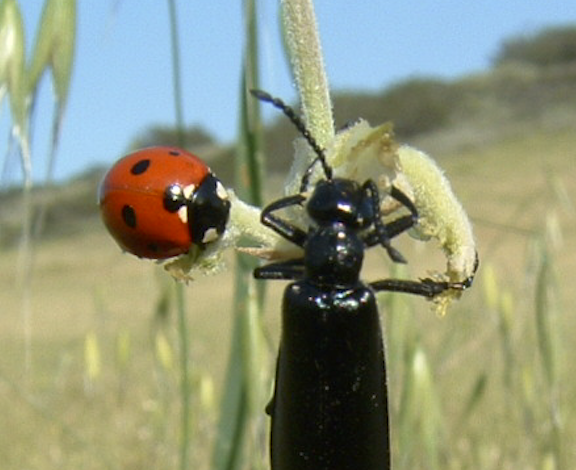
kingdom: Animalia
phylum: Arthropoda
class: Insecta
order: Coleoptera
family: Coccinellidae
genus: Coccinella
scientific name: Coccinella septempunctata
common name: Sevenspotted lady beetle
